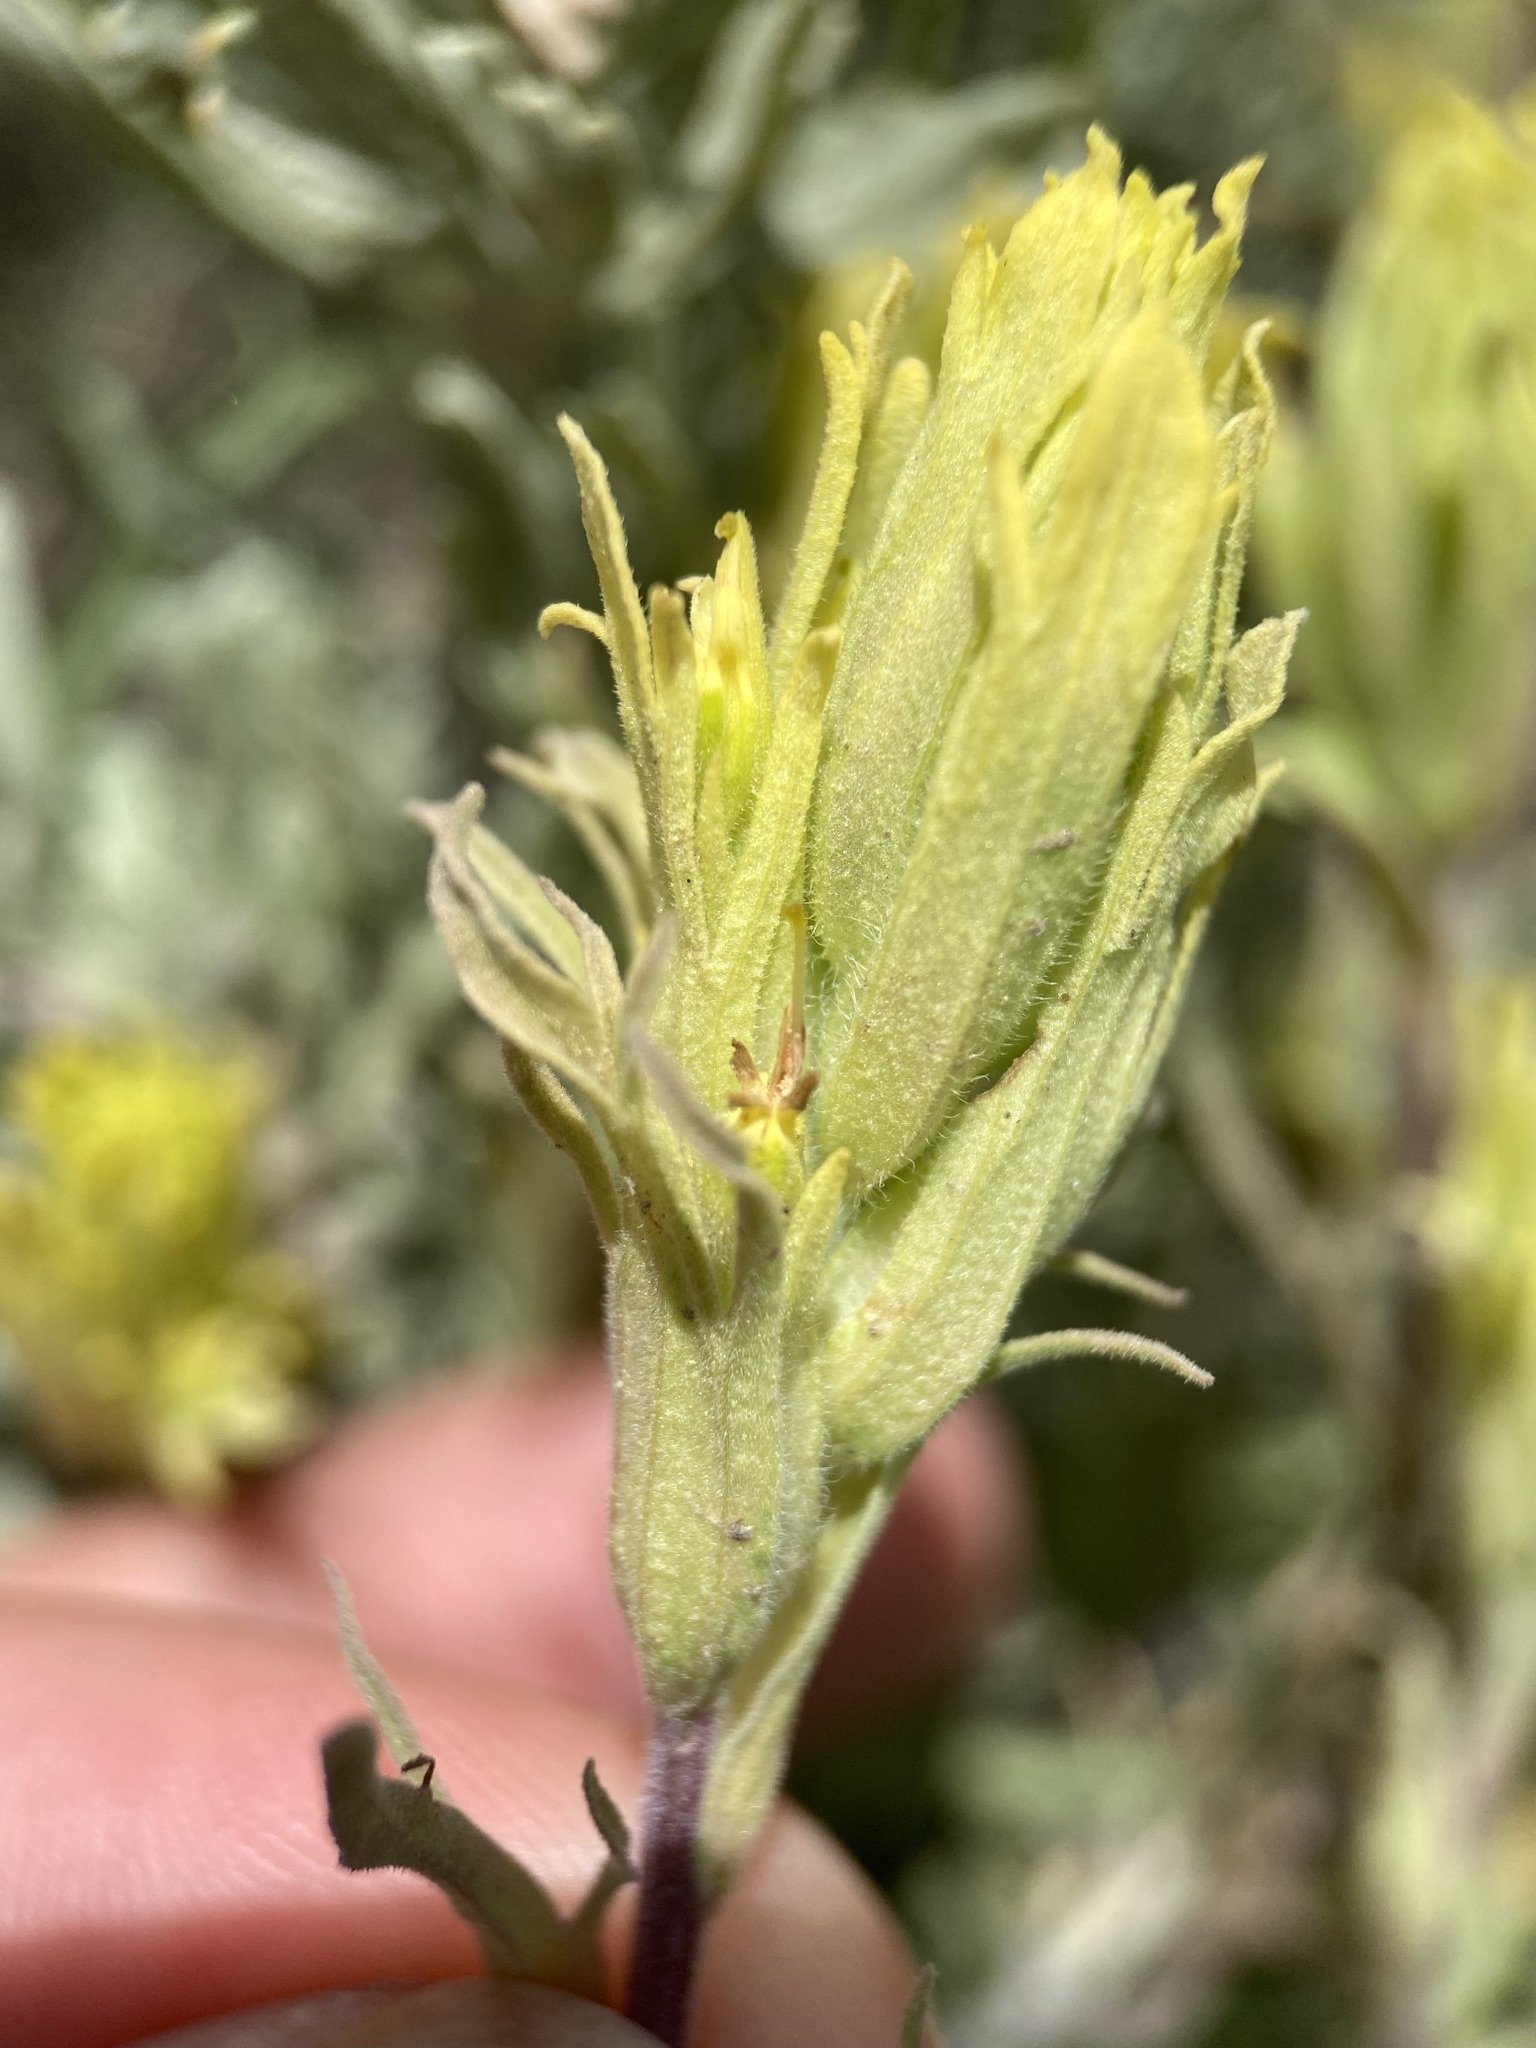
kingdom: Plantae
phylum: Tracheophyta
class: Magnoliopsida
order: Lamiales
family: Orobanchaceae
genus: Castilleja
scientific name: Castilleja pallescens
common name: Pale paintbrush
